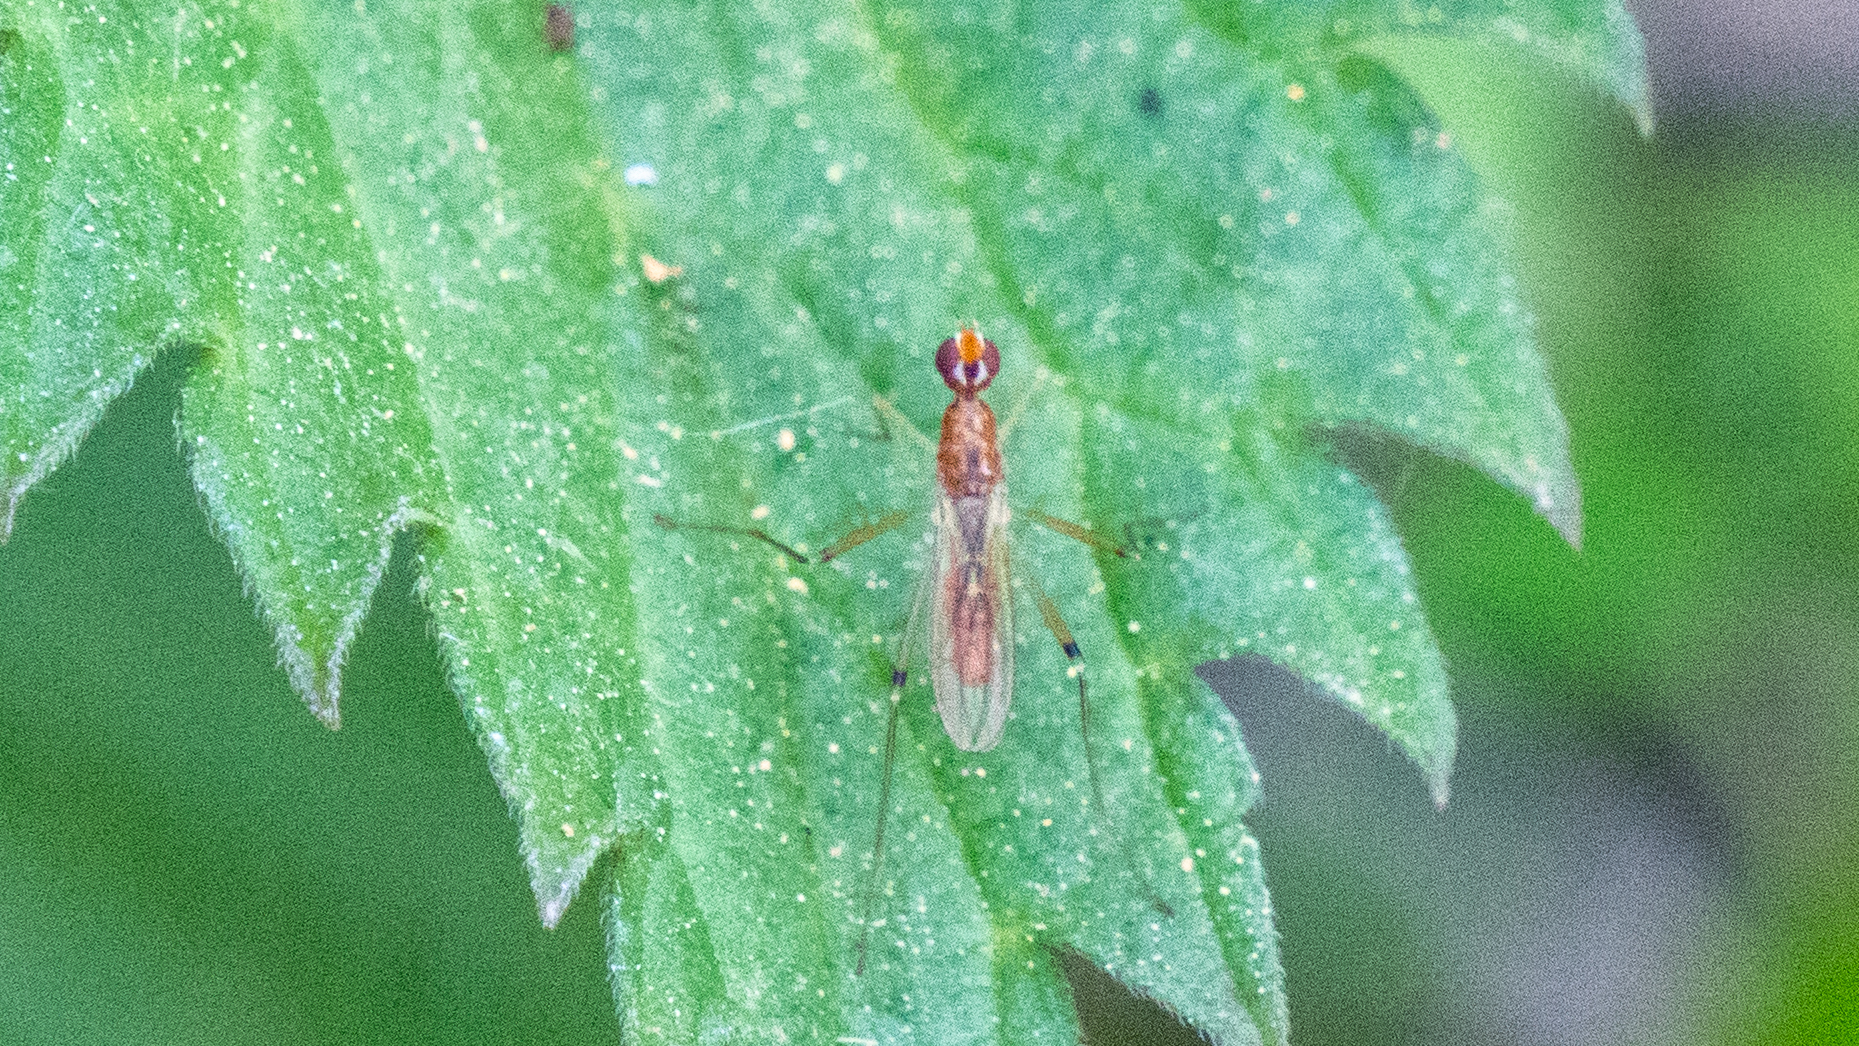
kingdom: Animalia
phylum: Arthropoda
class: Insecta
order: Diptera
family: Micropezidae
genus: Compsobata
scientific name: Compsobata univitta
